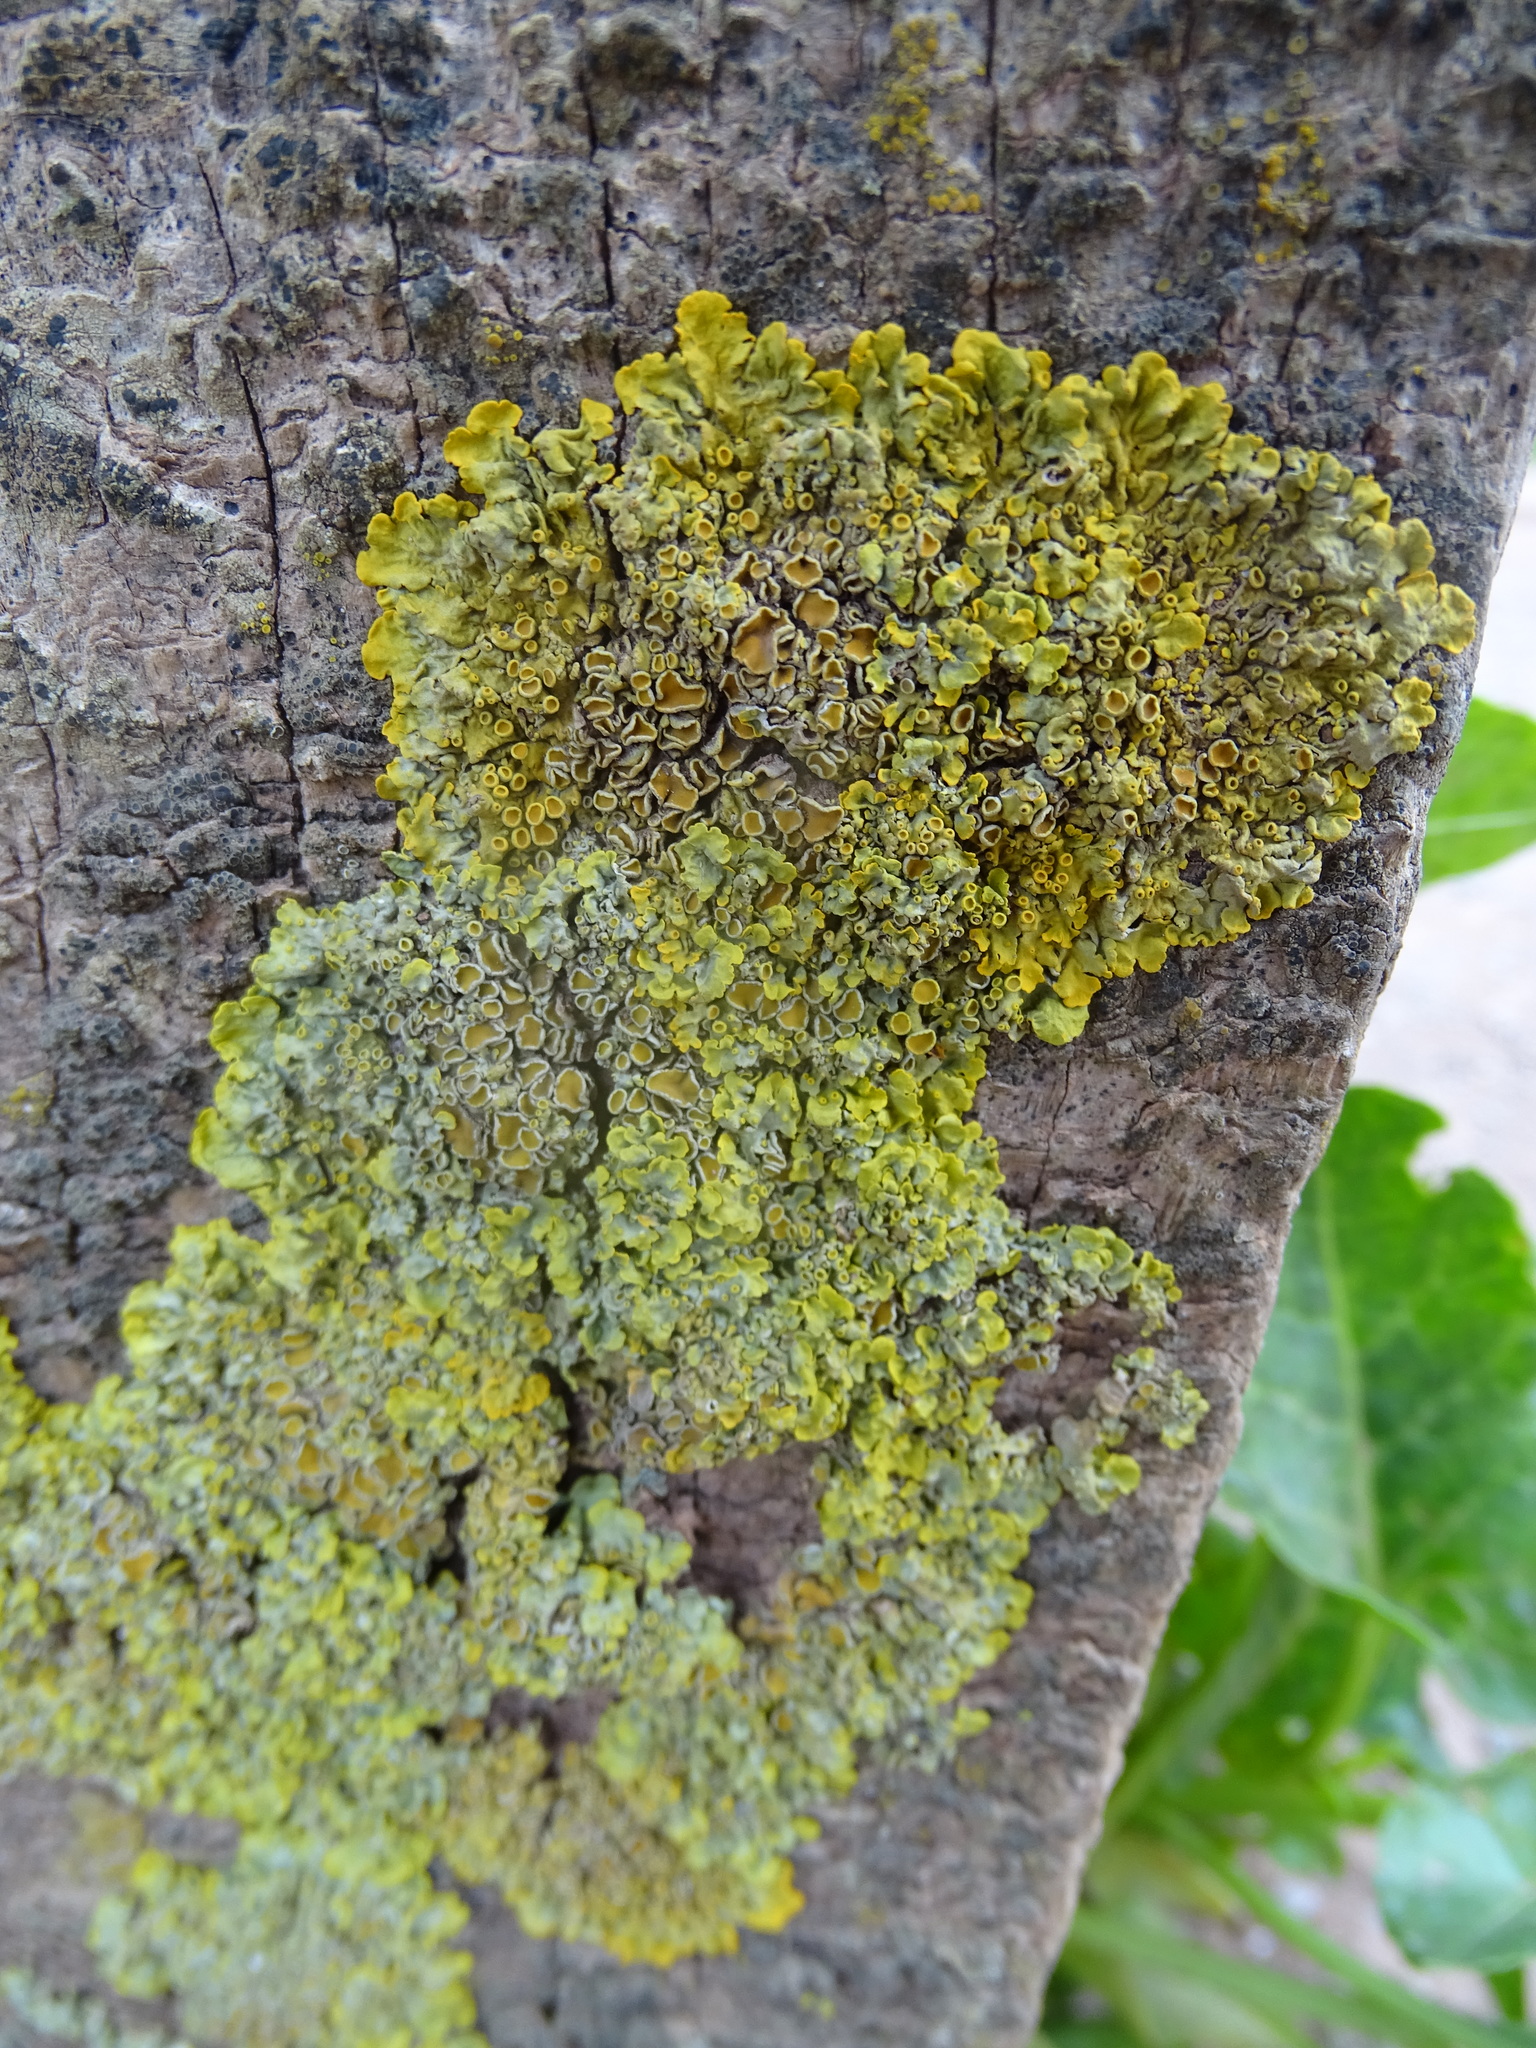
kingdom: Fungi
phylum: Ascomycota
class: Lecanoromycetes
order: Teloschistales
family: Teloschistaceae
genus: Xanthoria
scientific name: Xanthoria parietina
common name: Common orange lichen
